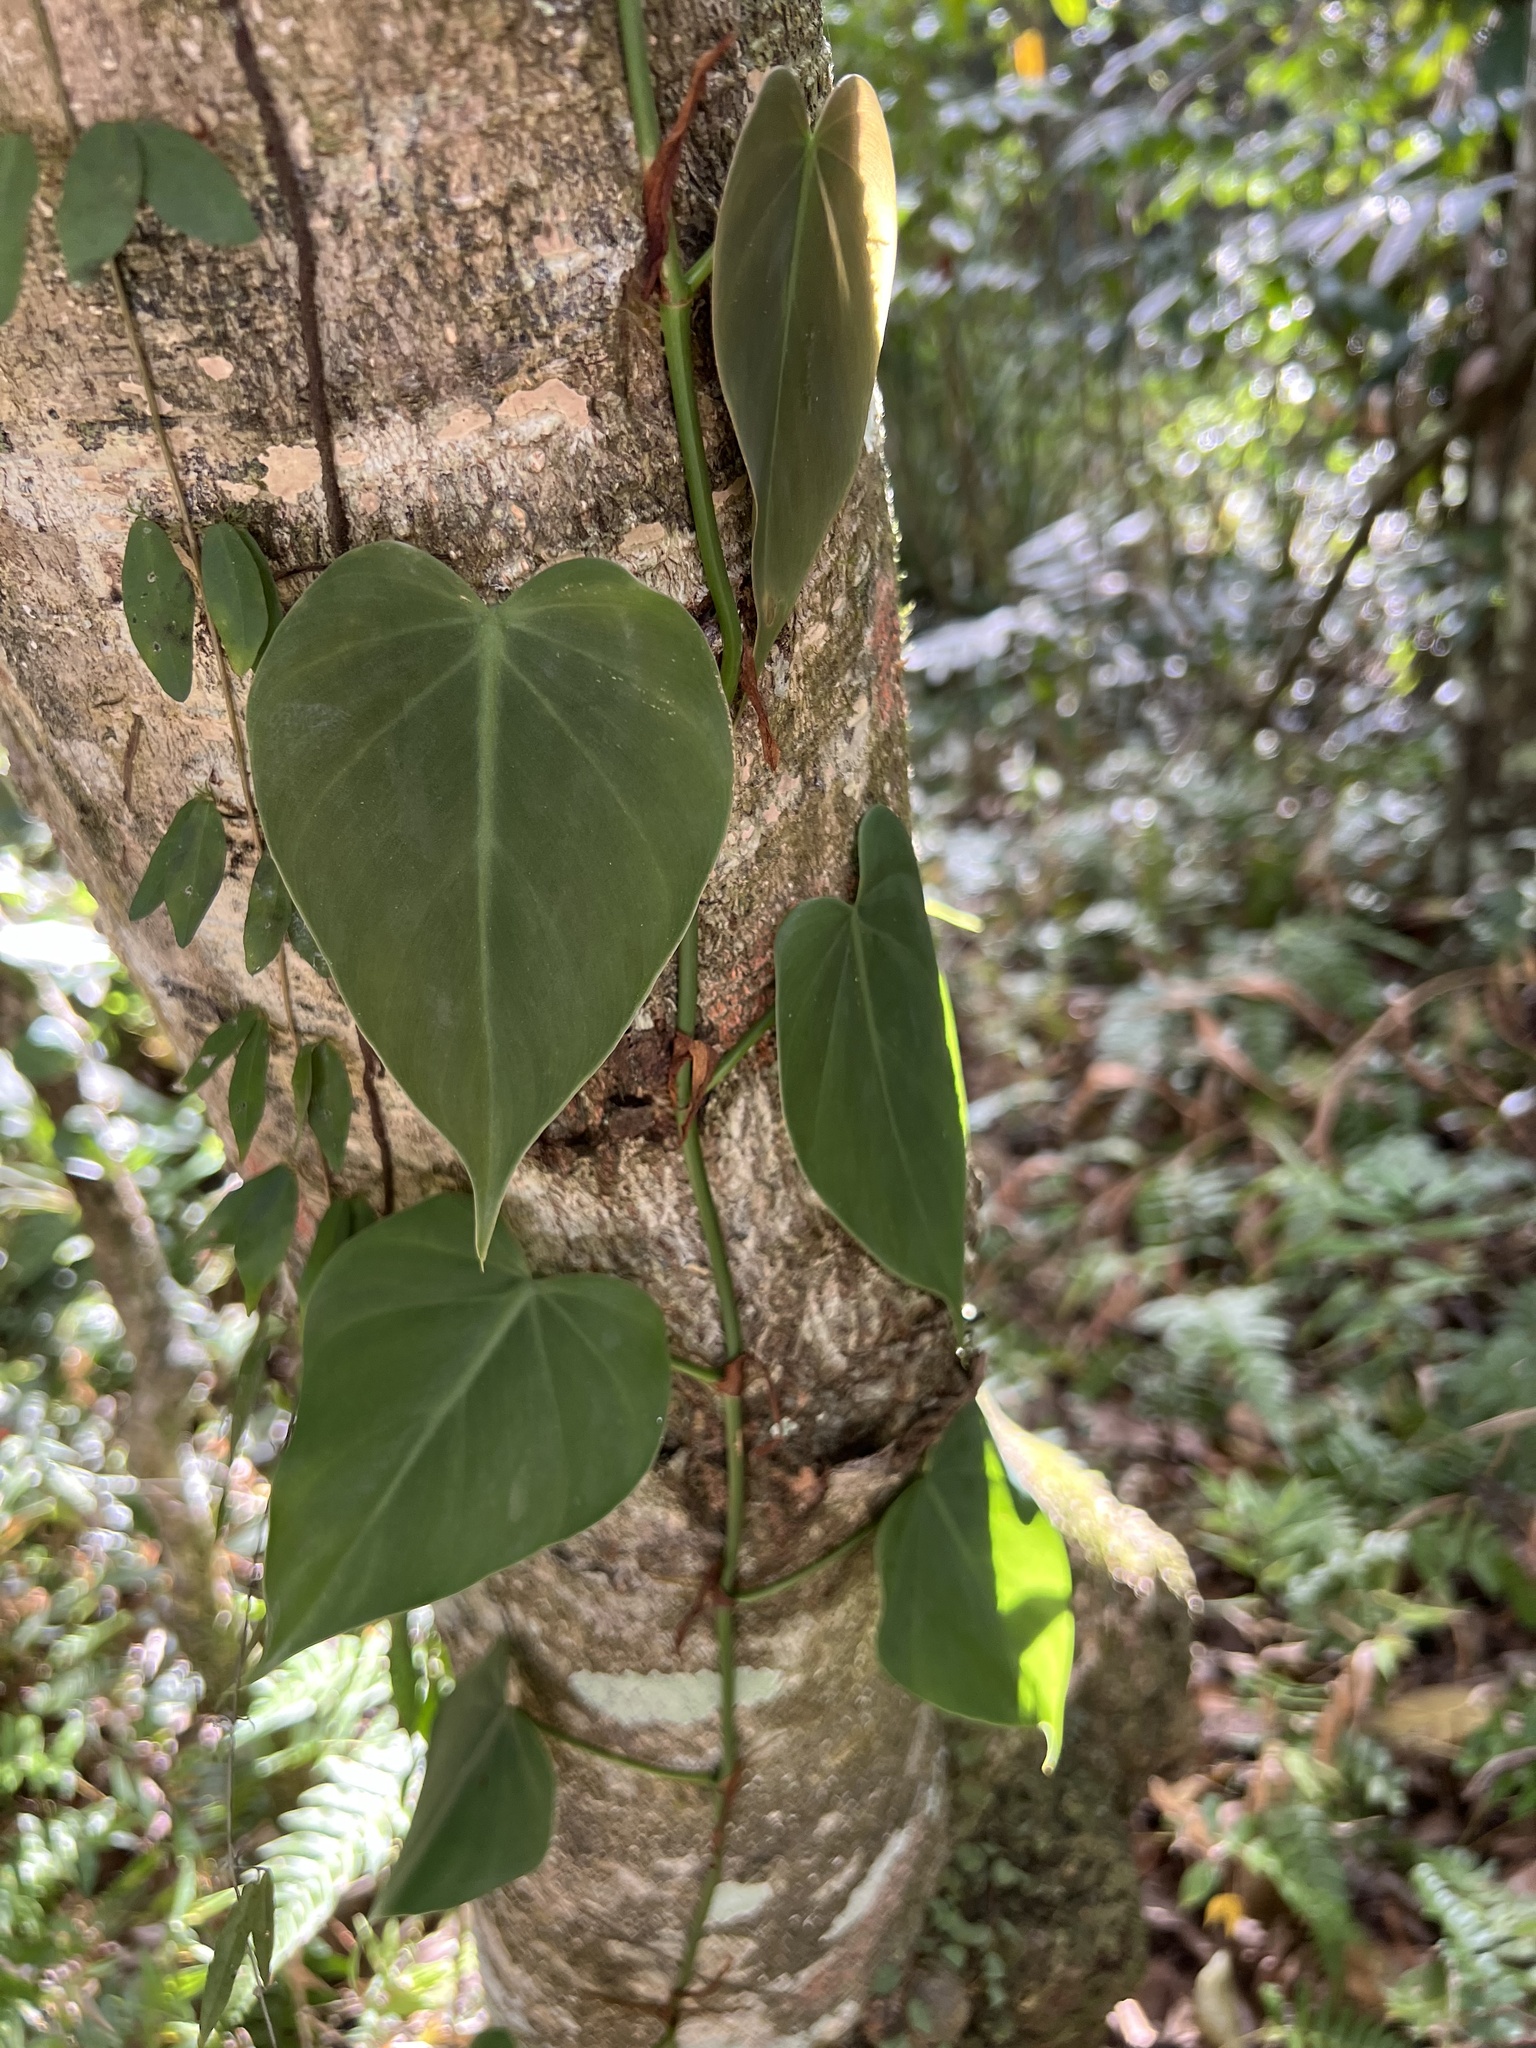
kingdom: Plantae
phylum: Tracheophyta
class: Liliopsida
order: Alismatales
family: Araceae
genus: Philodendron
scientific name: Philodendron hederaceum
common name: Vilevine
